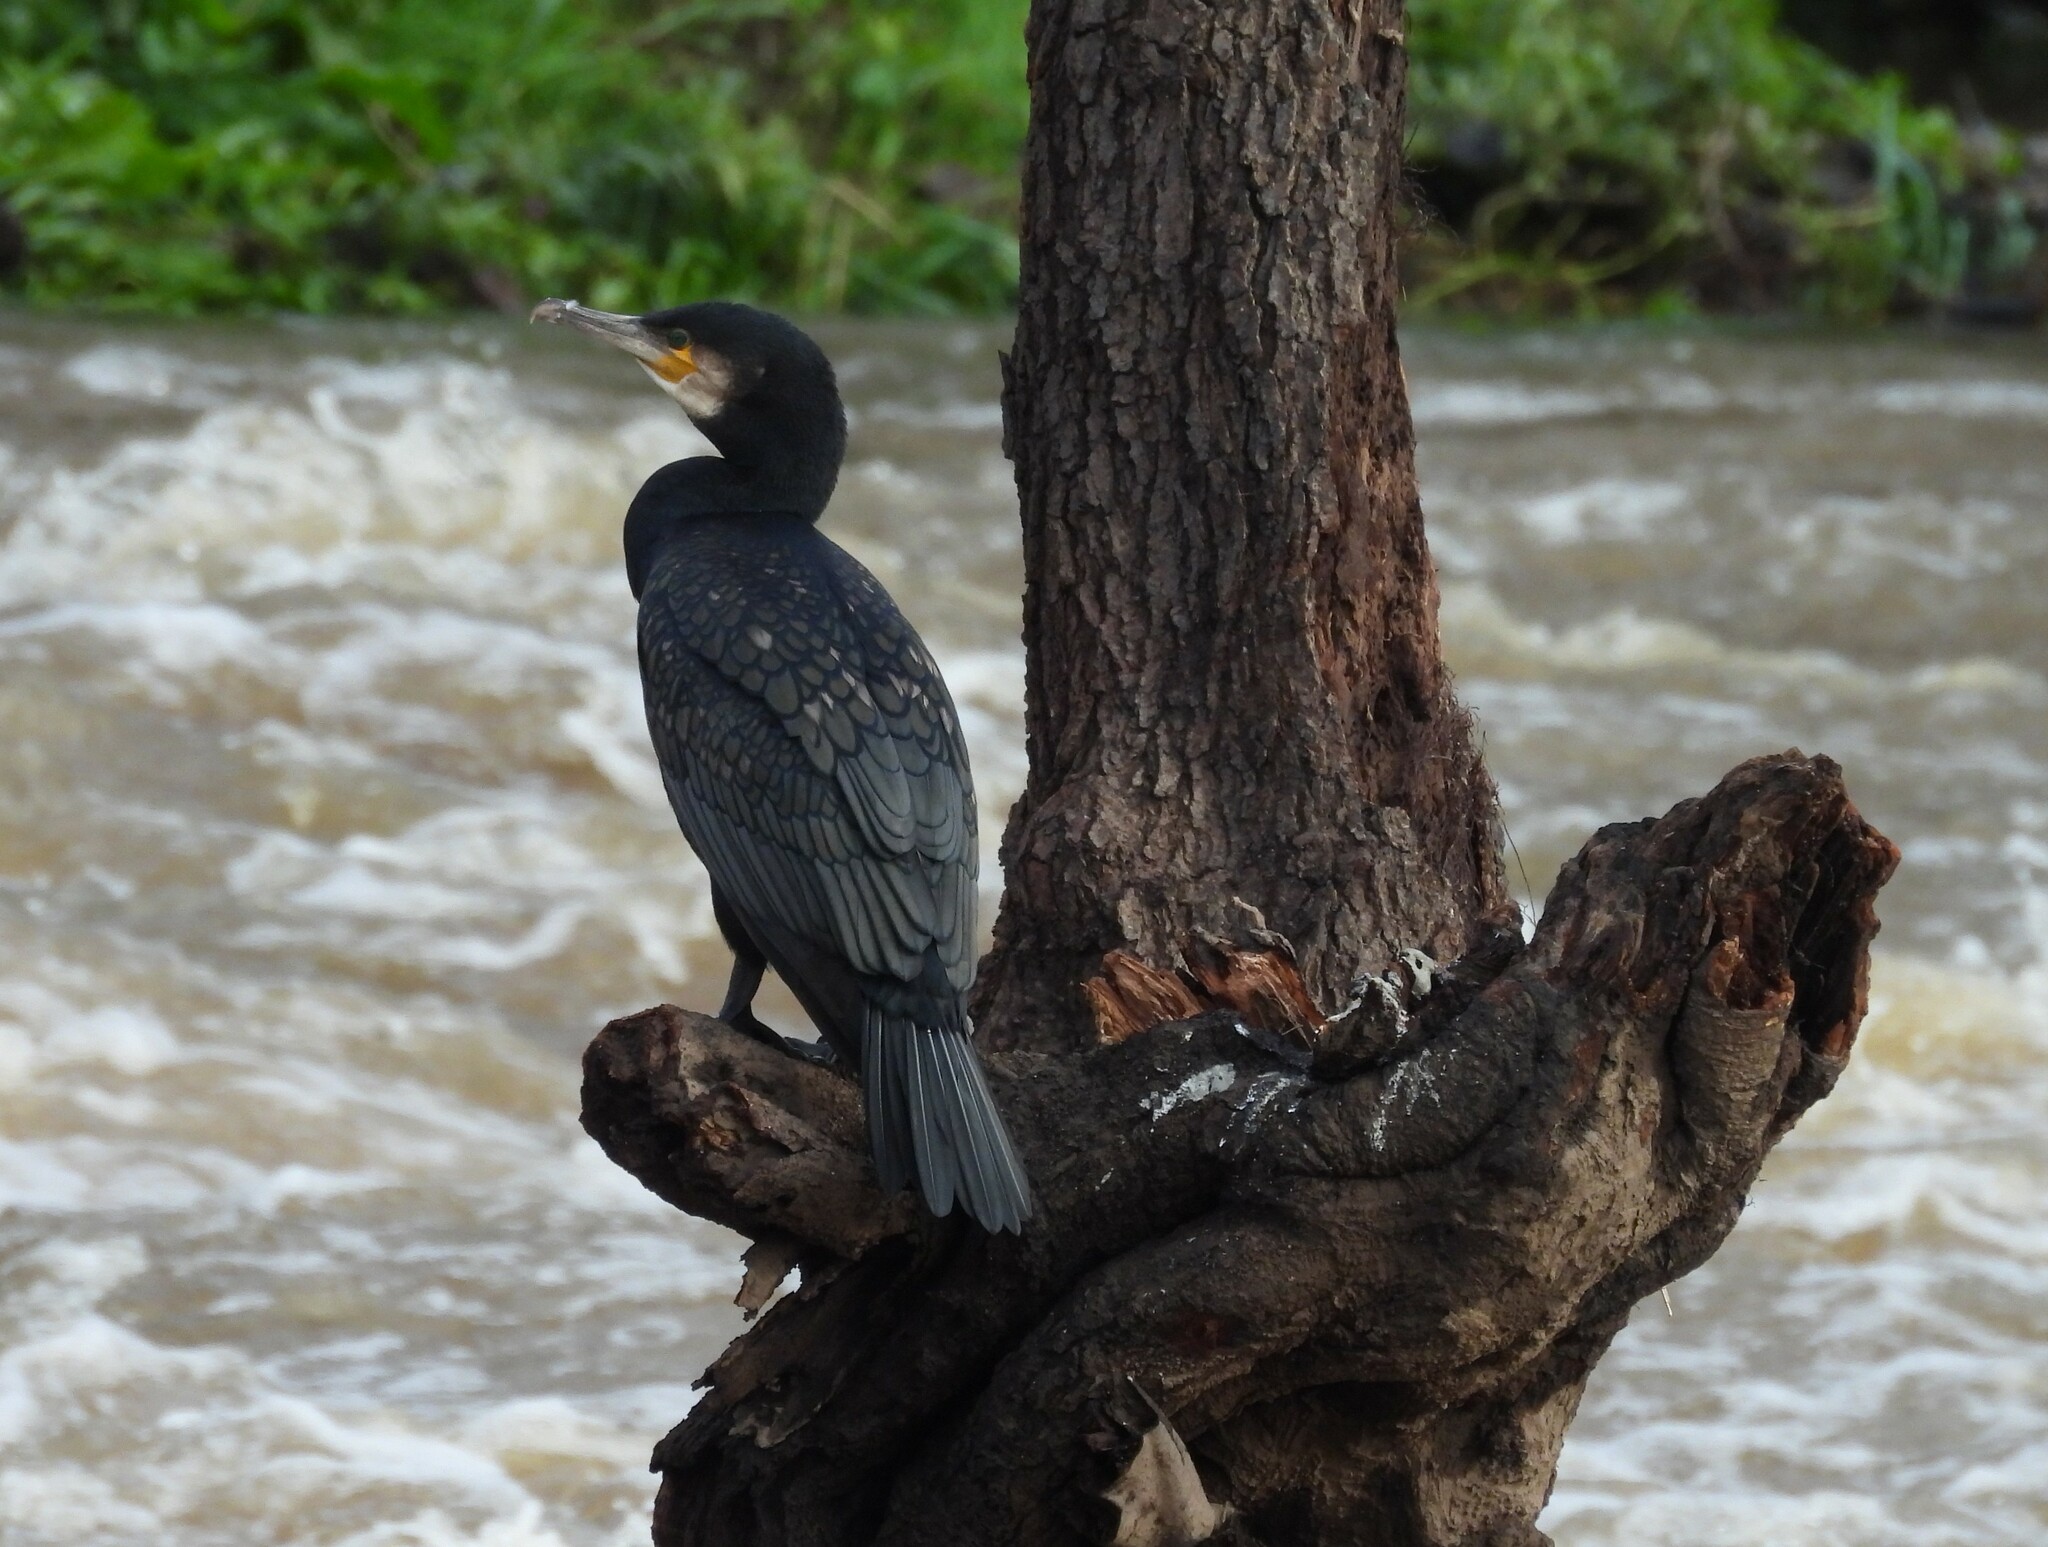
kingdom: Animalia
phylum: Chordata
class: Aves
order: Suliformes
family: Phalacrocoracidae
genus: Phalacrocorax
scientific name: Phalacrocorax carbo
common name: Great cormorant
